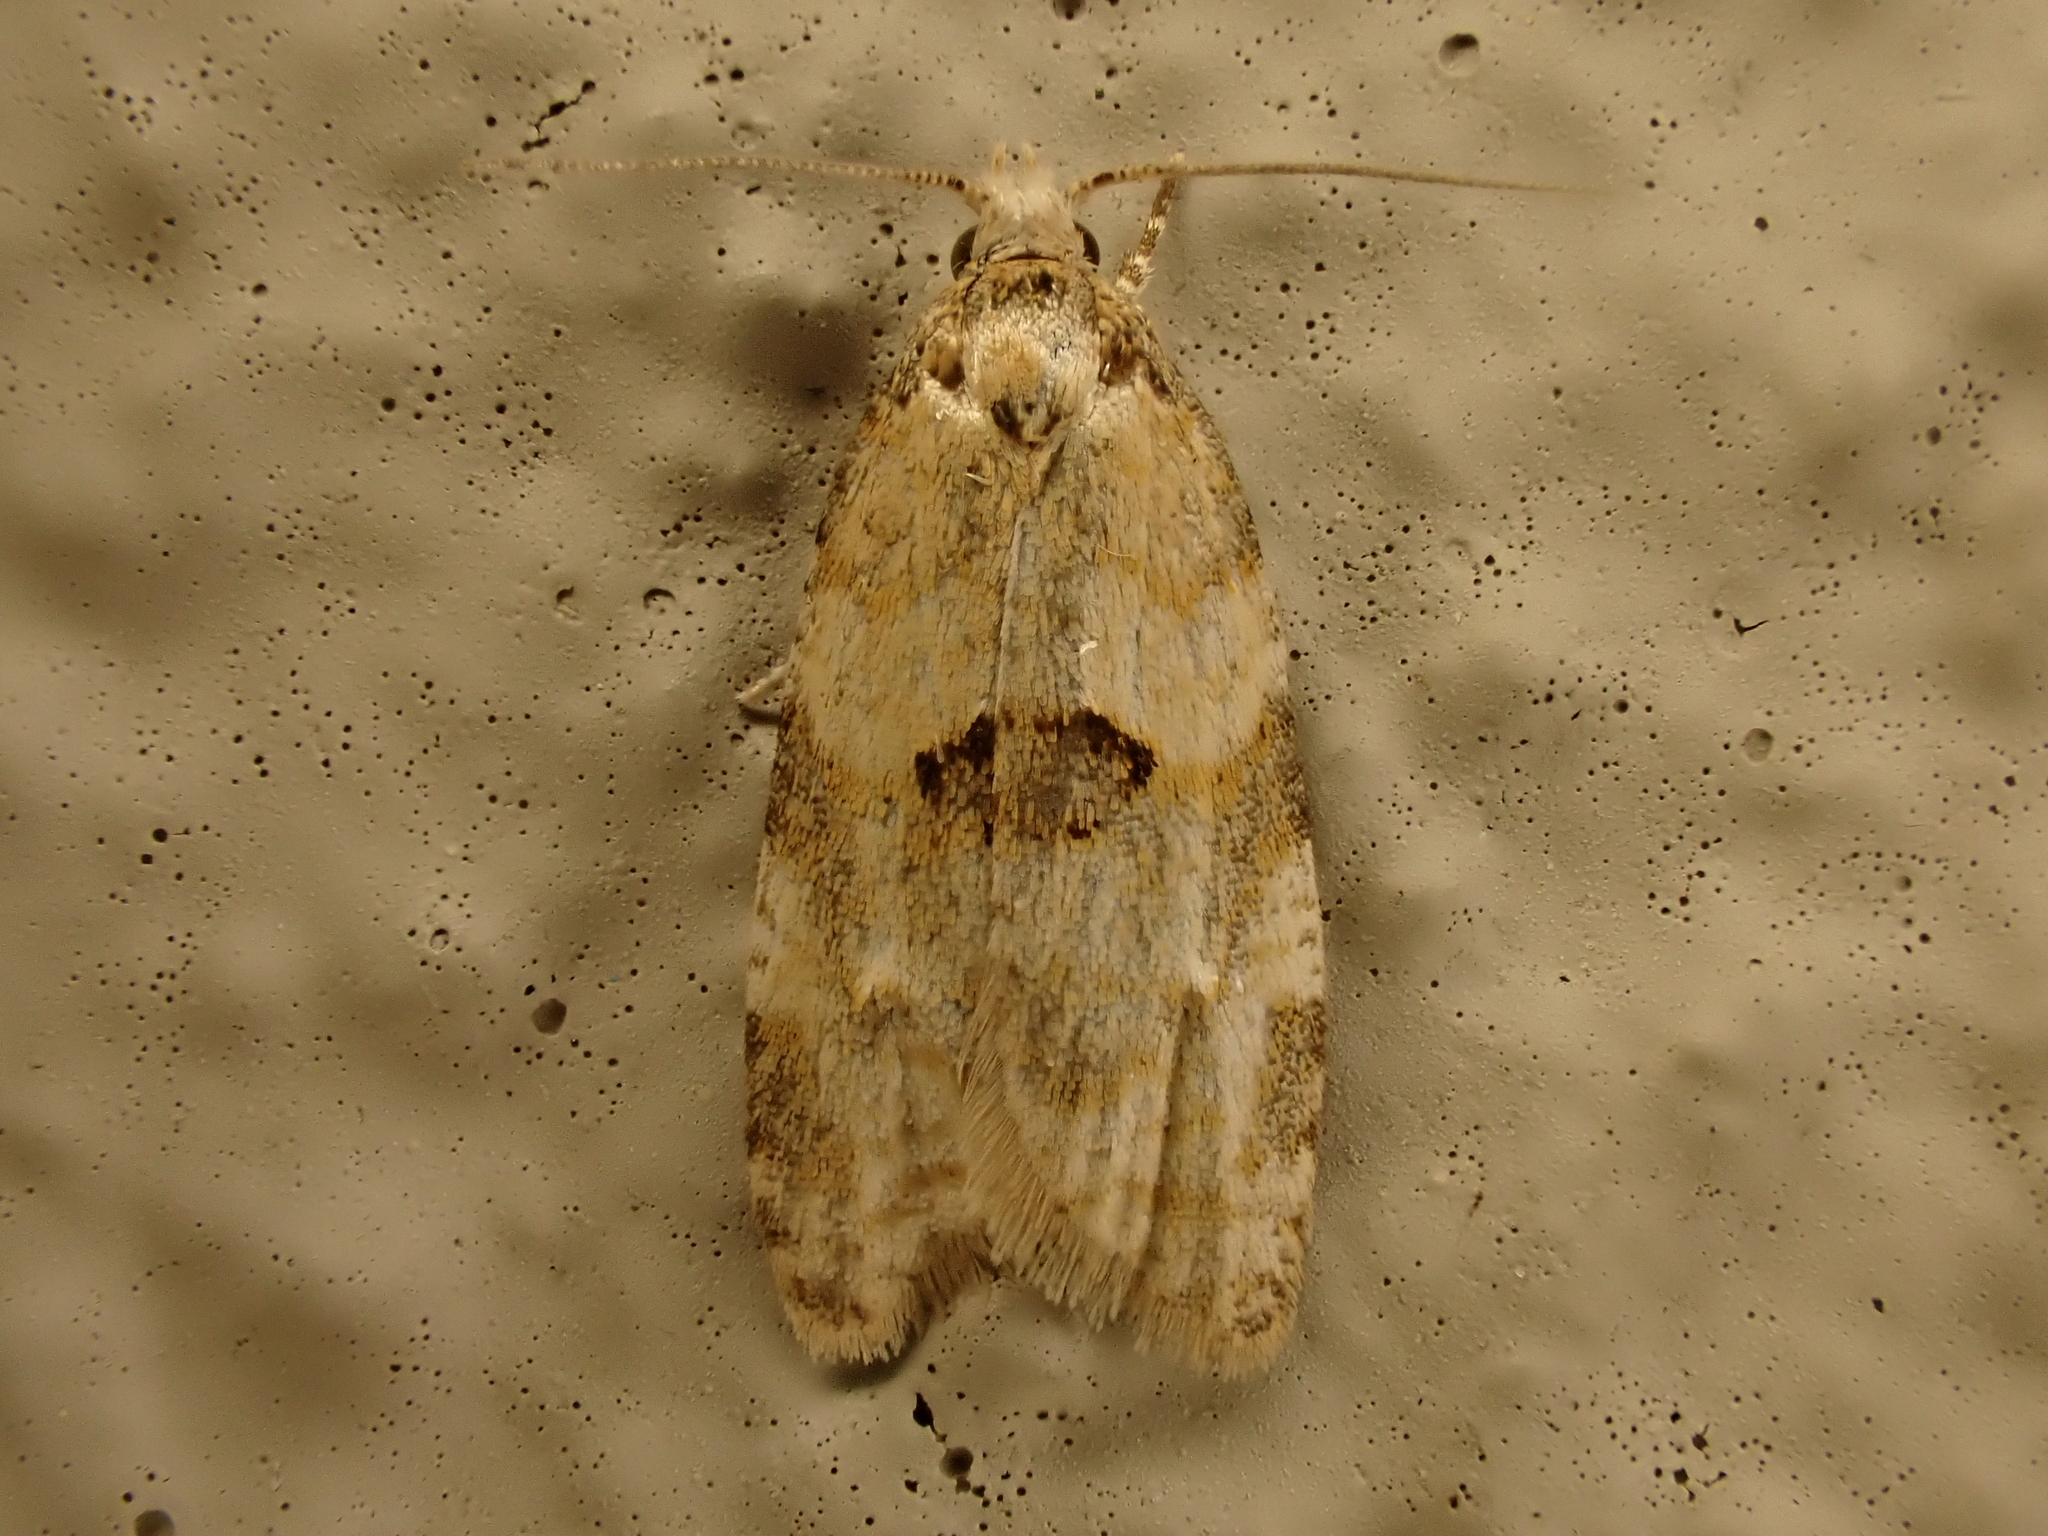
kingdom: Animalia
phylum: Arthropoda
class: Insecta
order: Lepidoptera
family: Tortricidae
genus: Dipterina
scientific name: Dipterina imbriferana
